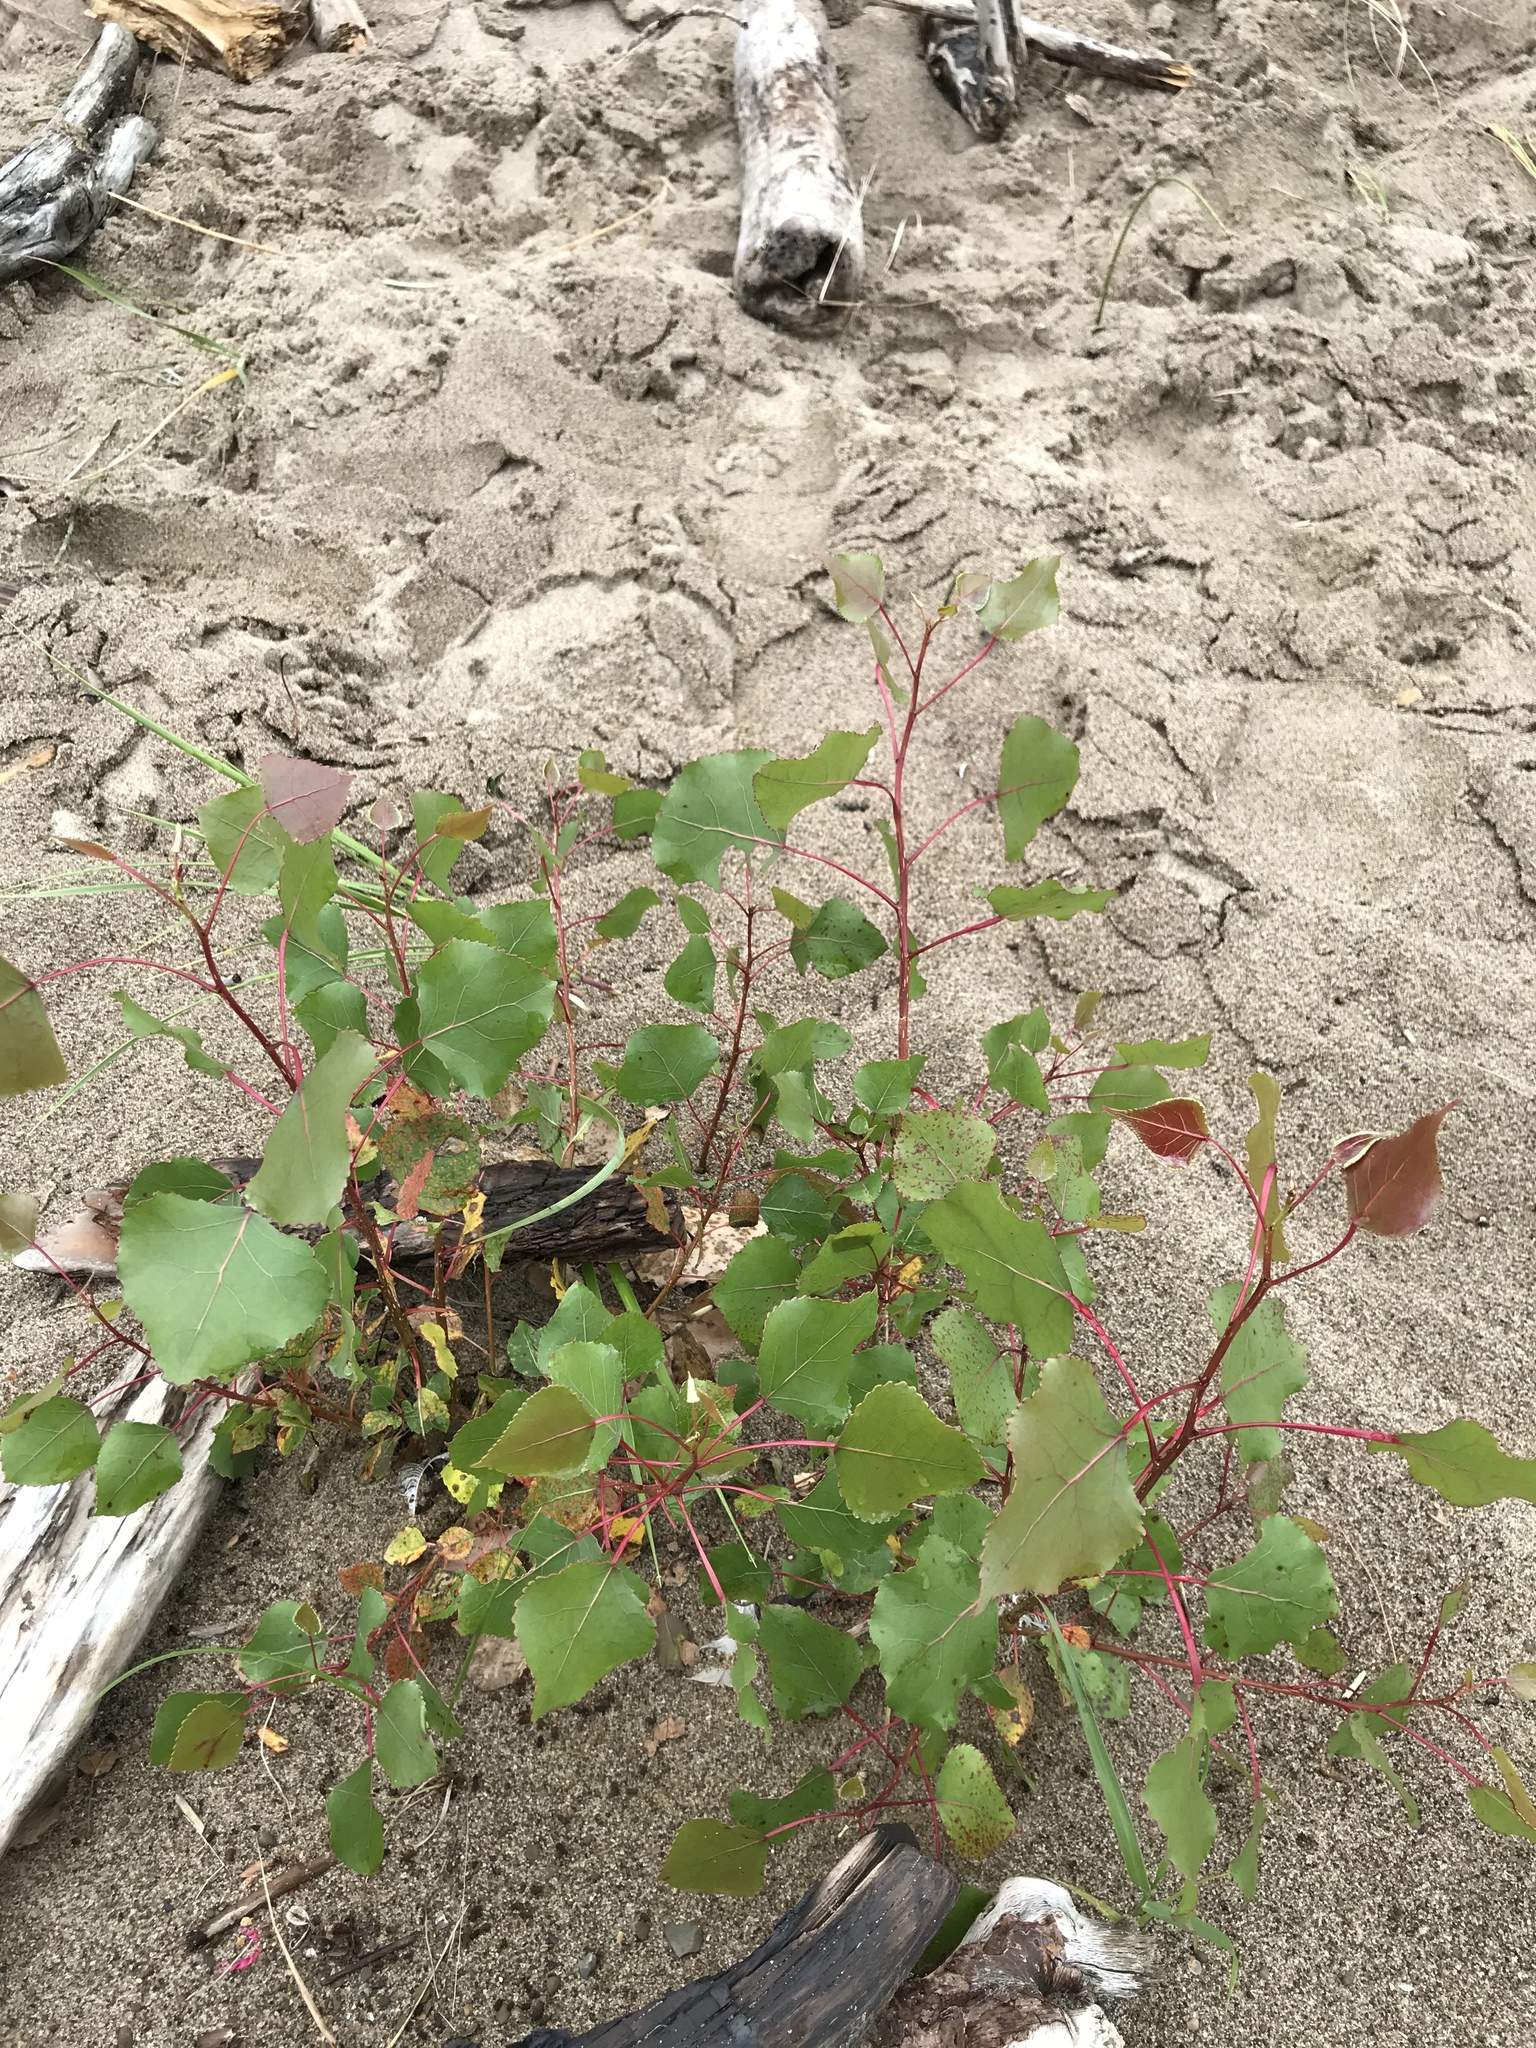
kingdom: Plantae
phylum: Tracheophyta
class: Magnoliopsida
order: Malpighiales
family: Salicaceae
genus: Populus
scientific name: Populus deltoides
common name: Eastern cottonwood
